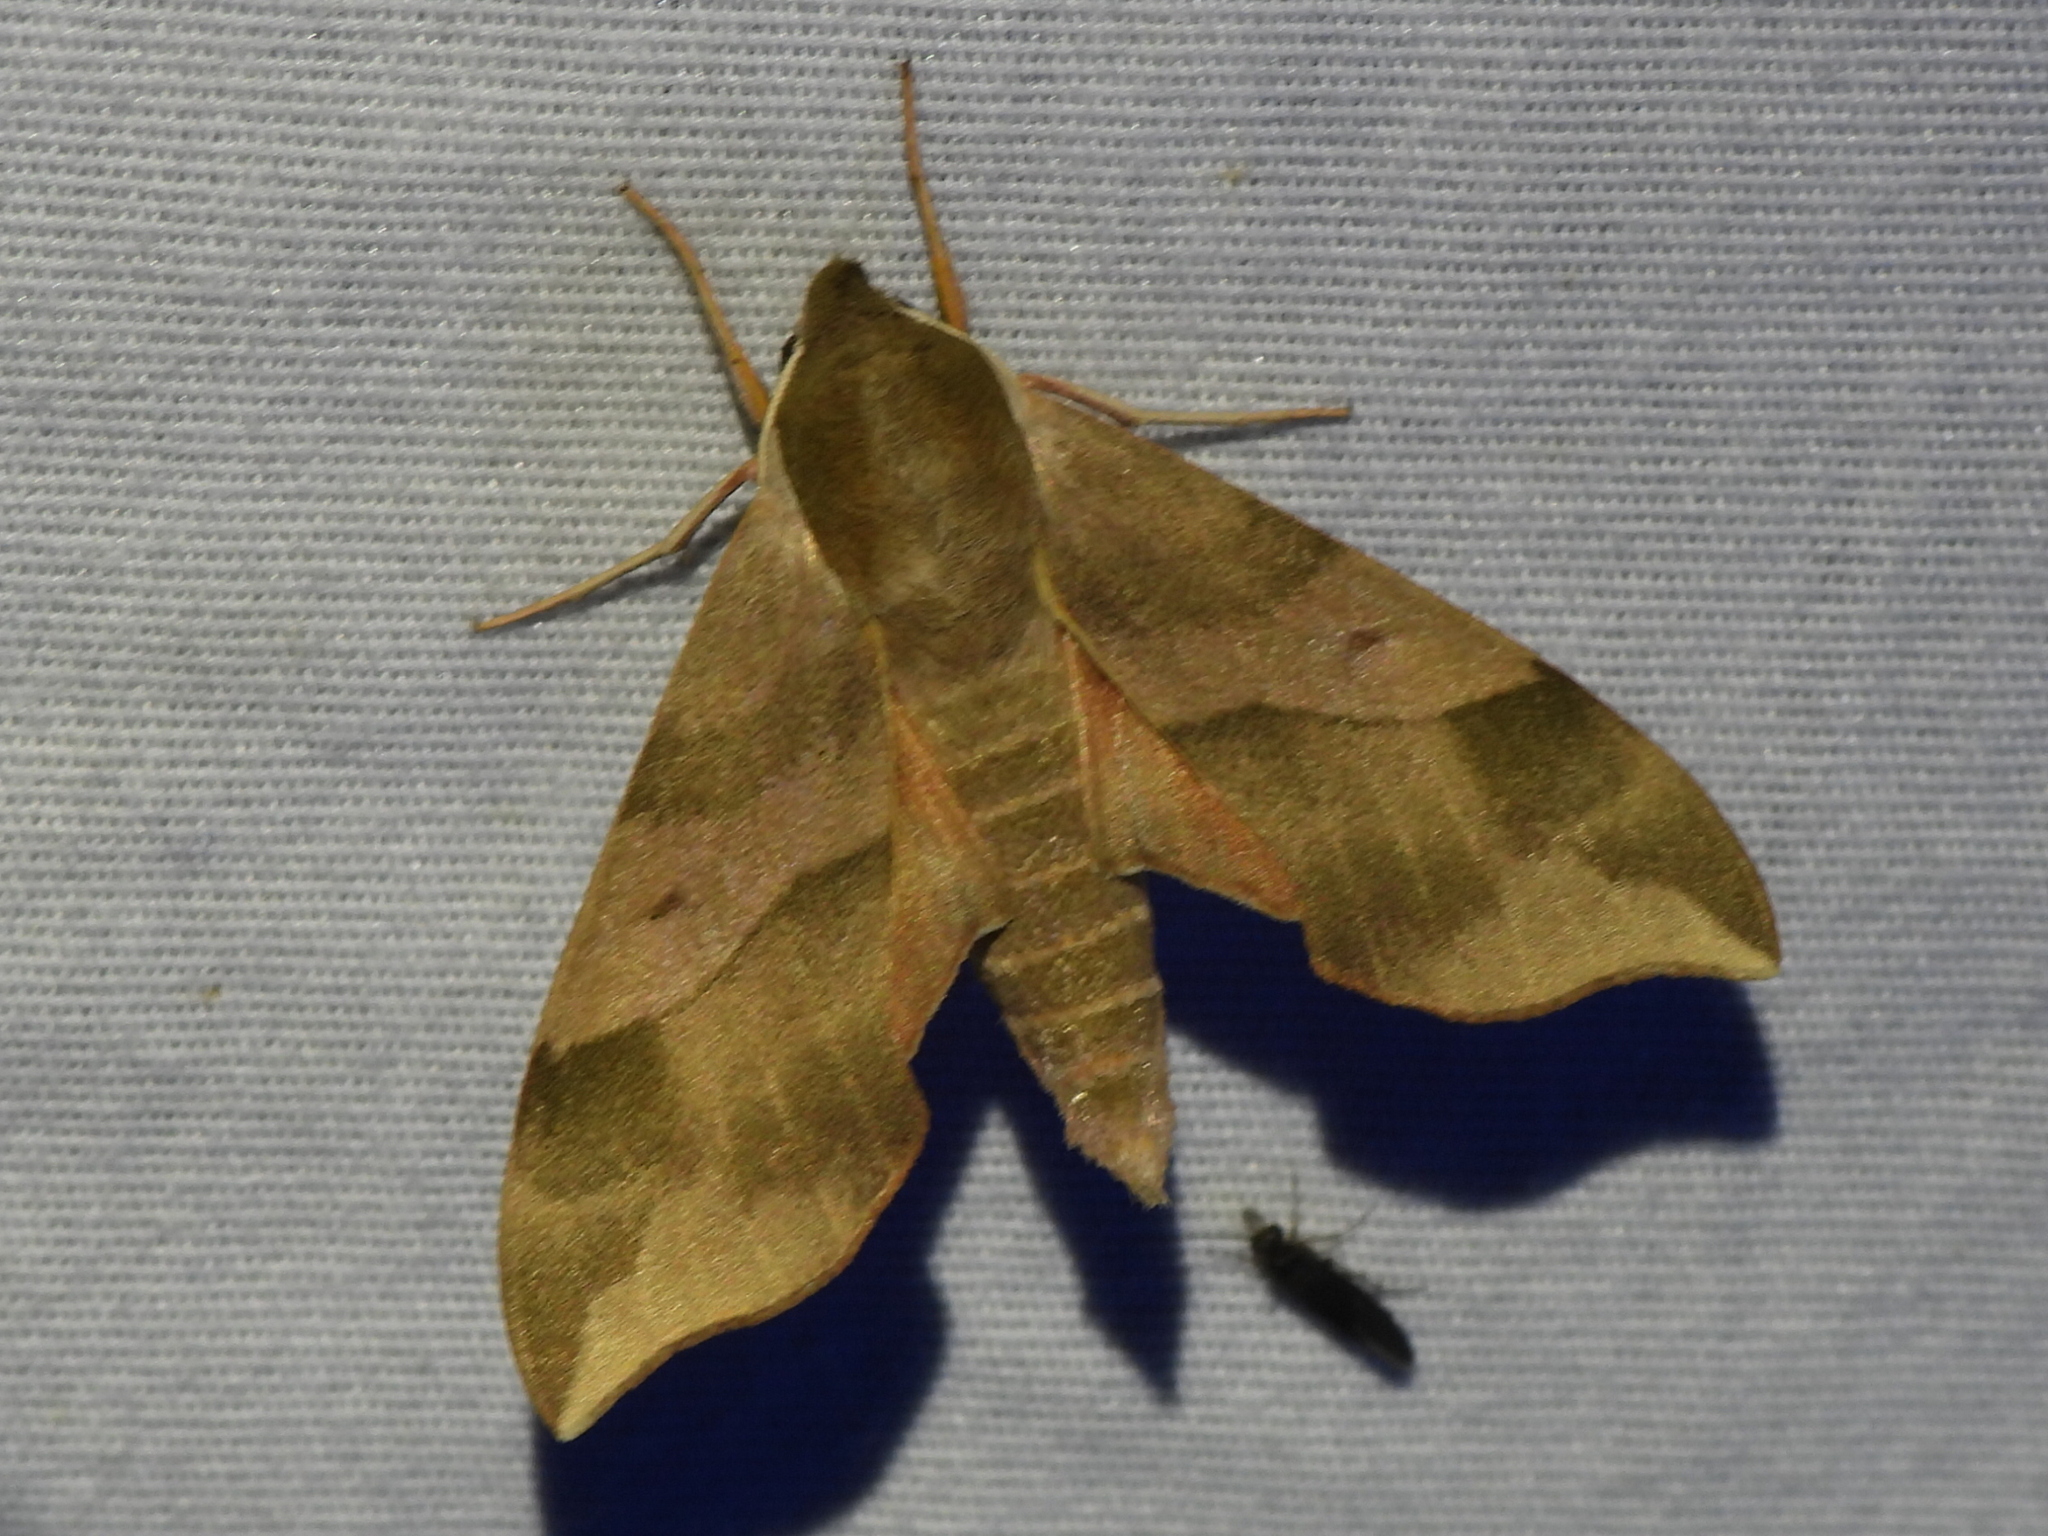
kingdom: Animalia
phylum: Arthropoda
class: Insecta
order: Lepidoptera
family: Sphingidae
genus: Darapsa
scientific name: Darapsa myron
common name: Hog sphinx
